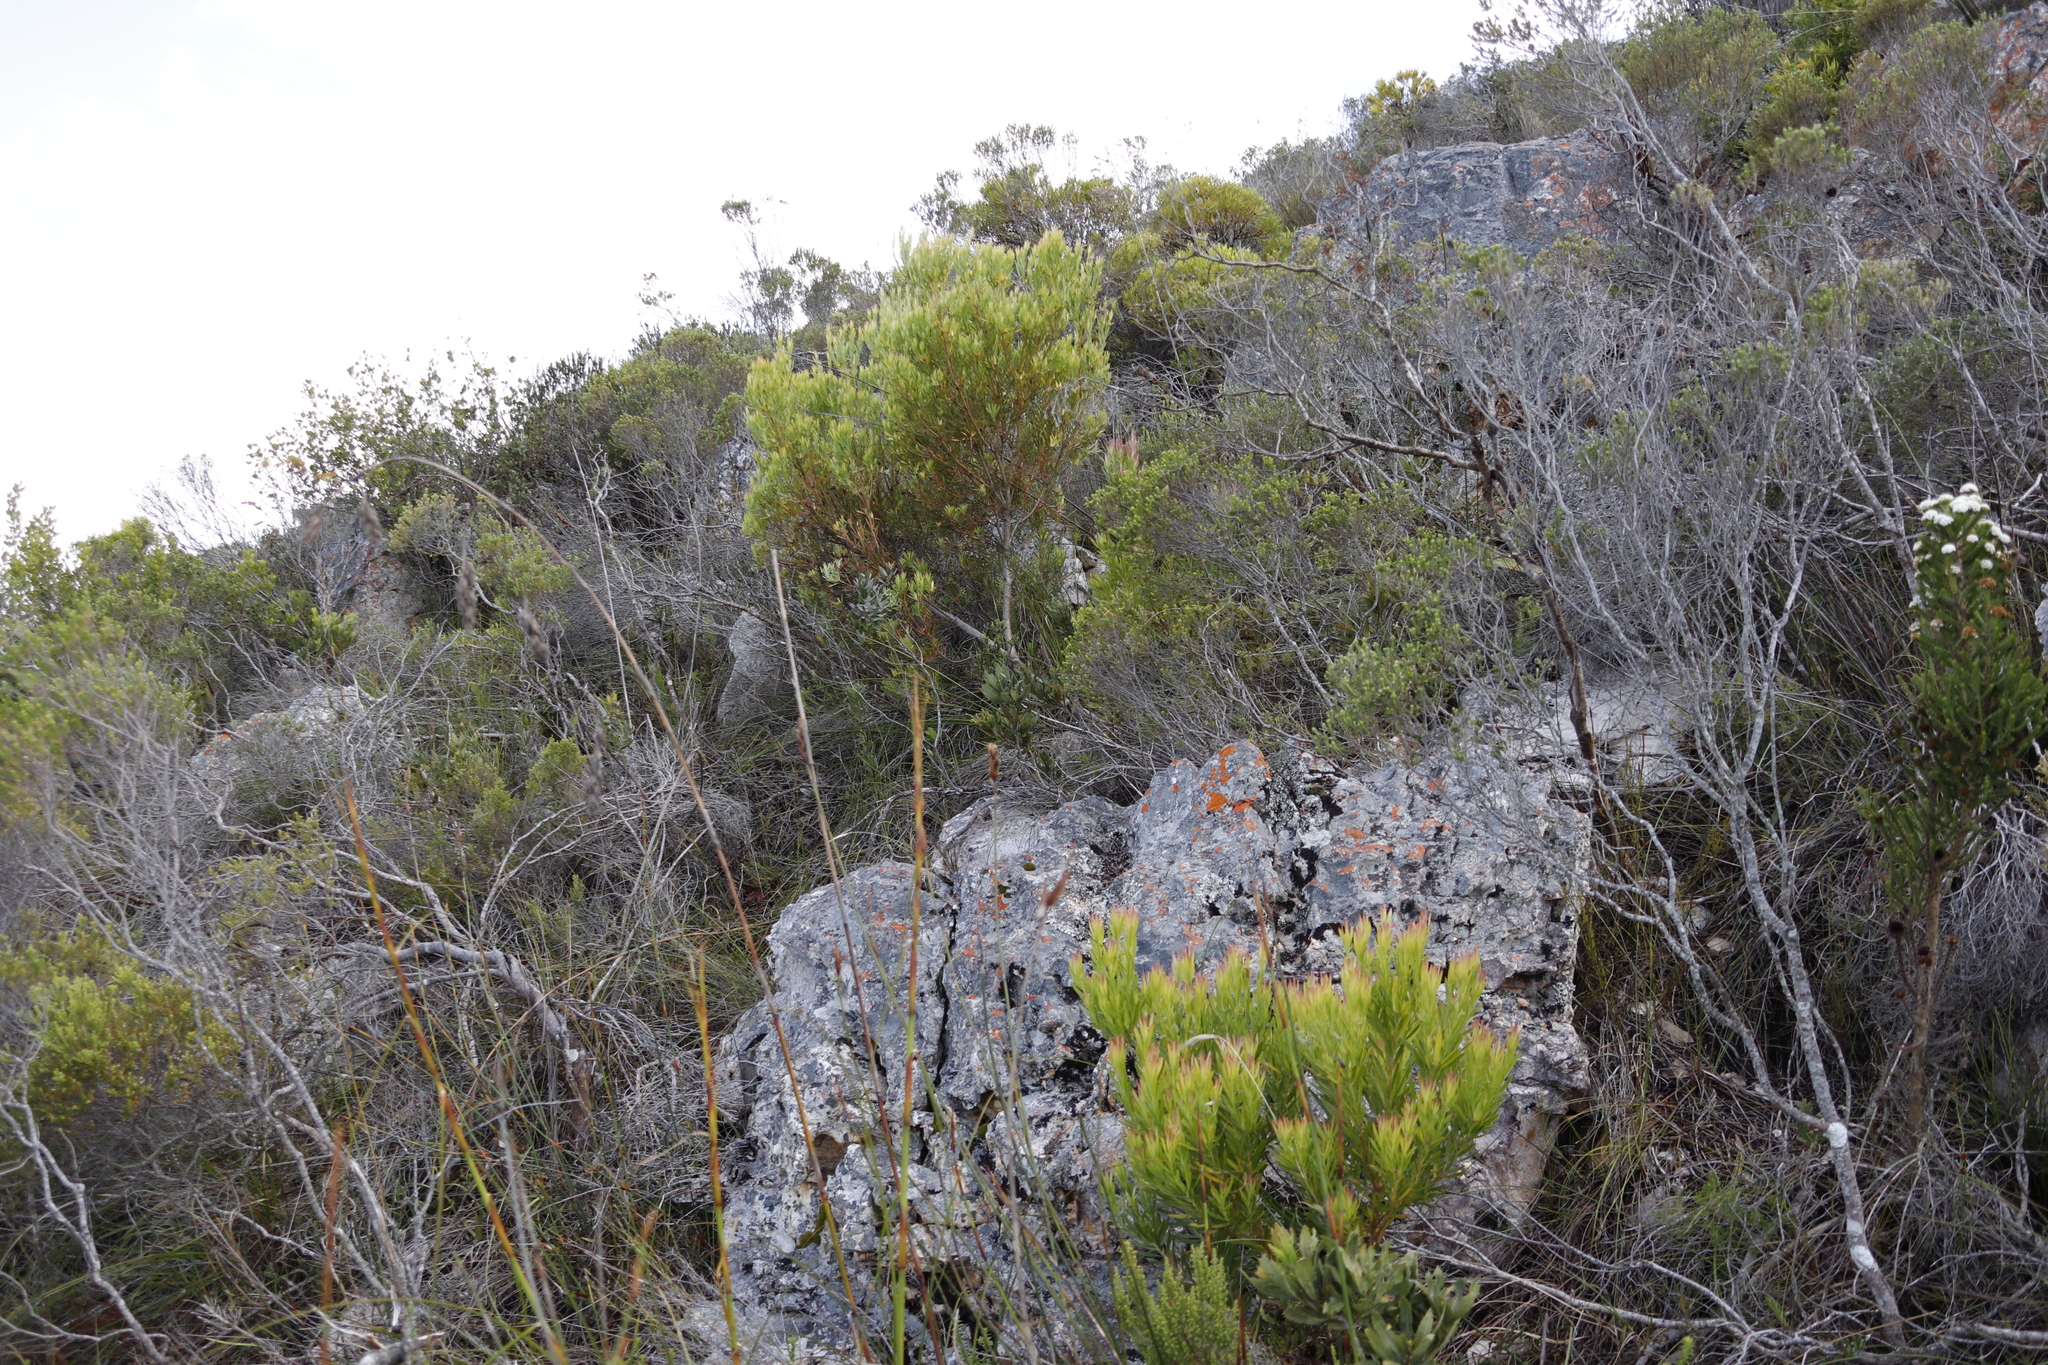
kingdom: Plantae
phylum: Tracheophyta
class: Magnoliopsida
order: Proteales
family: Proteaceae
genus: Leucadendron
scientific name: Leucadendron xanthoconus
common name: Sickle-leaf conebush
